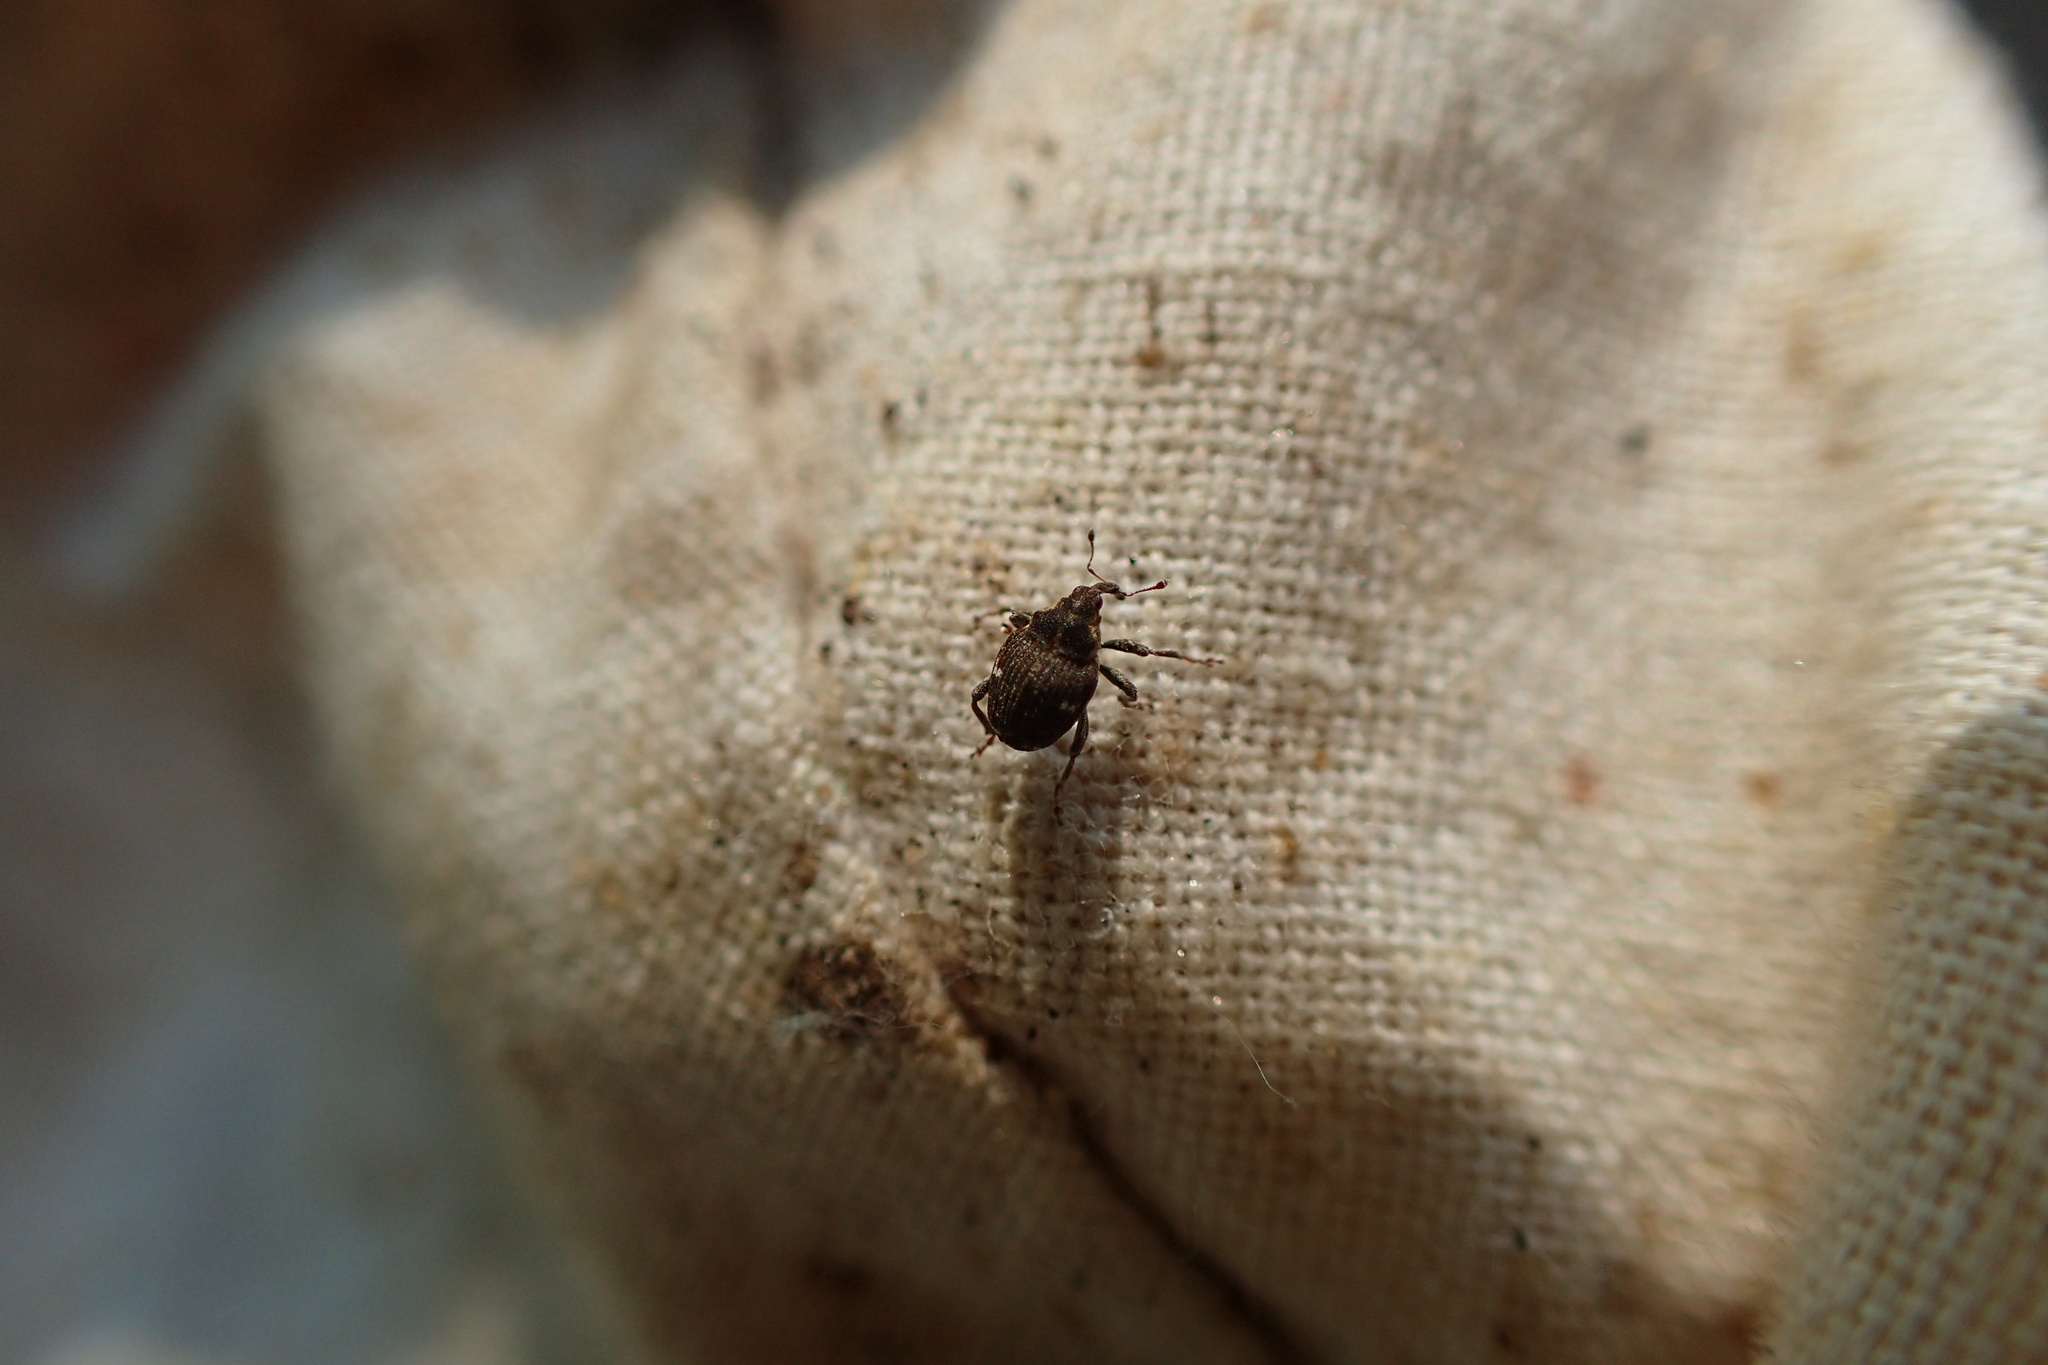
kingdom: Animalia
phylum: Arthropoda
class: Insecta
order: Coleoptera
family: Curculionidae
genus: Nedyus
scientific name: Nedyus quadrimaculatus
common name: Small nettle weevil
